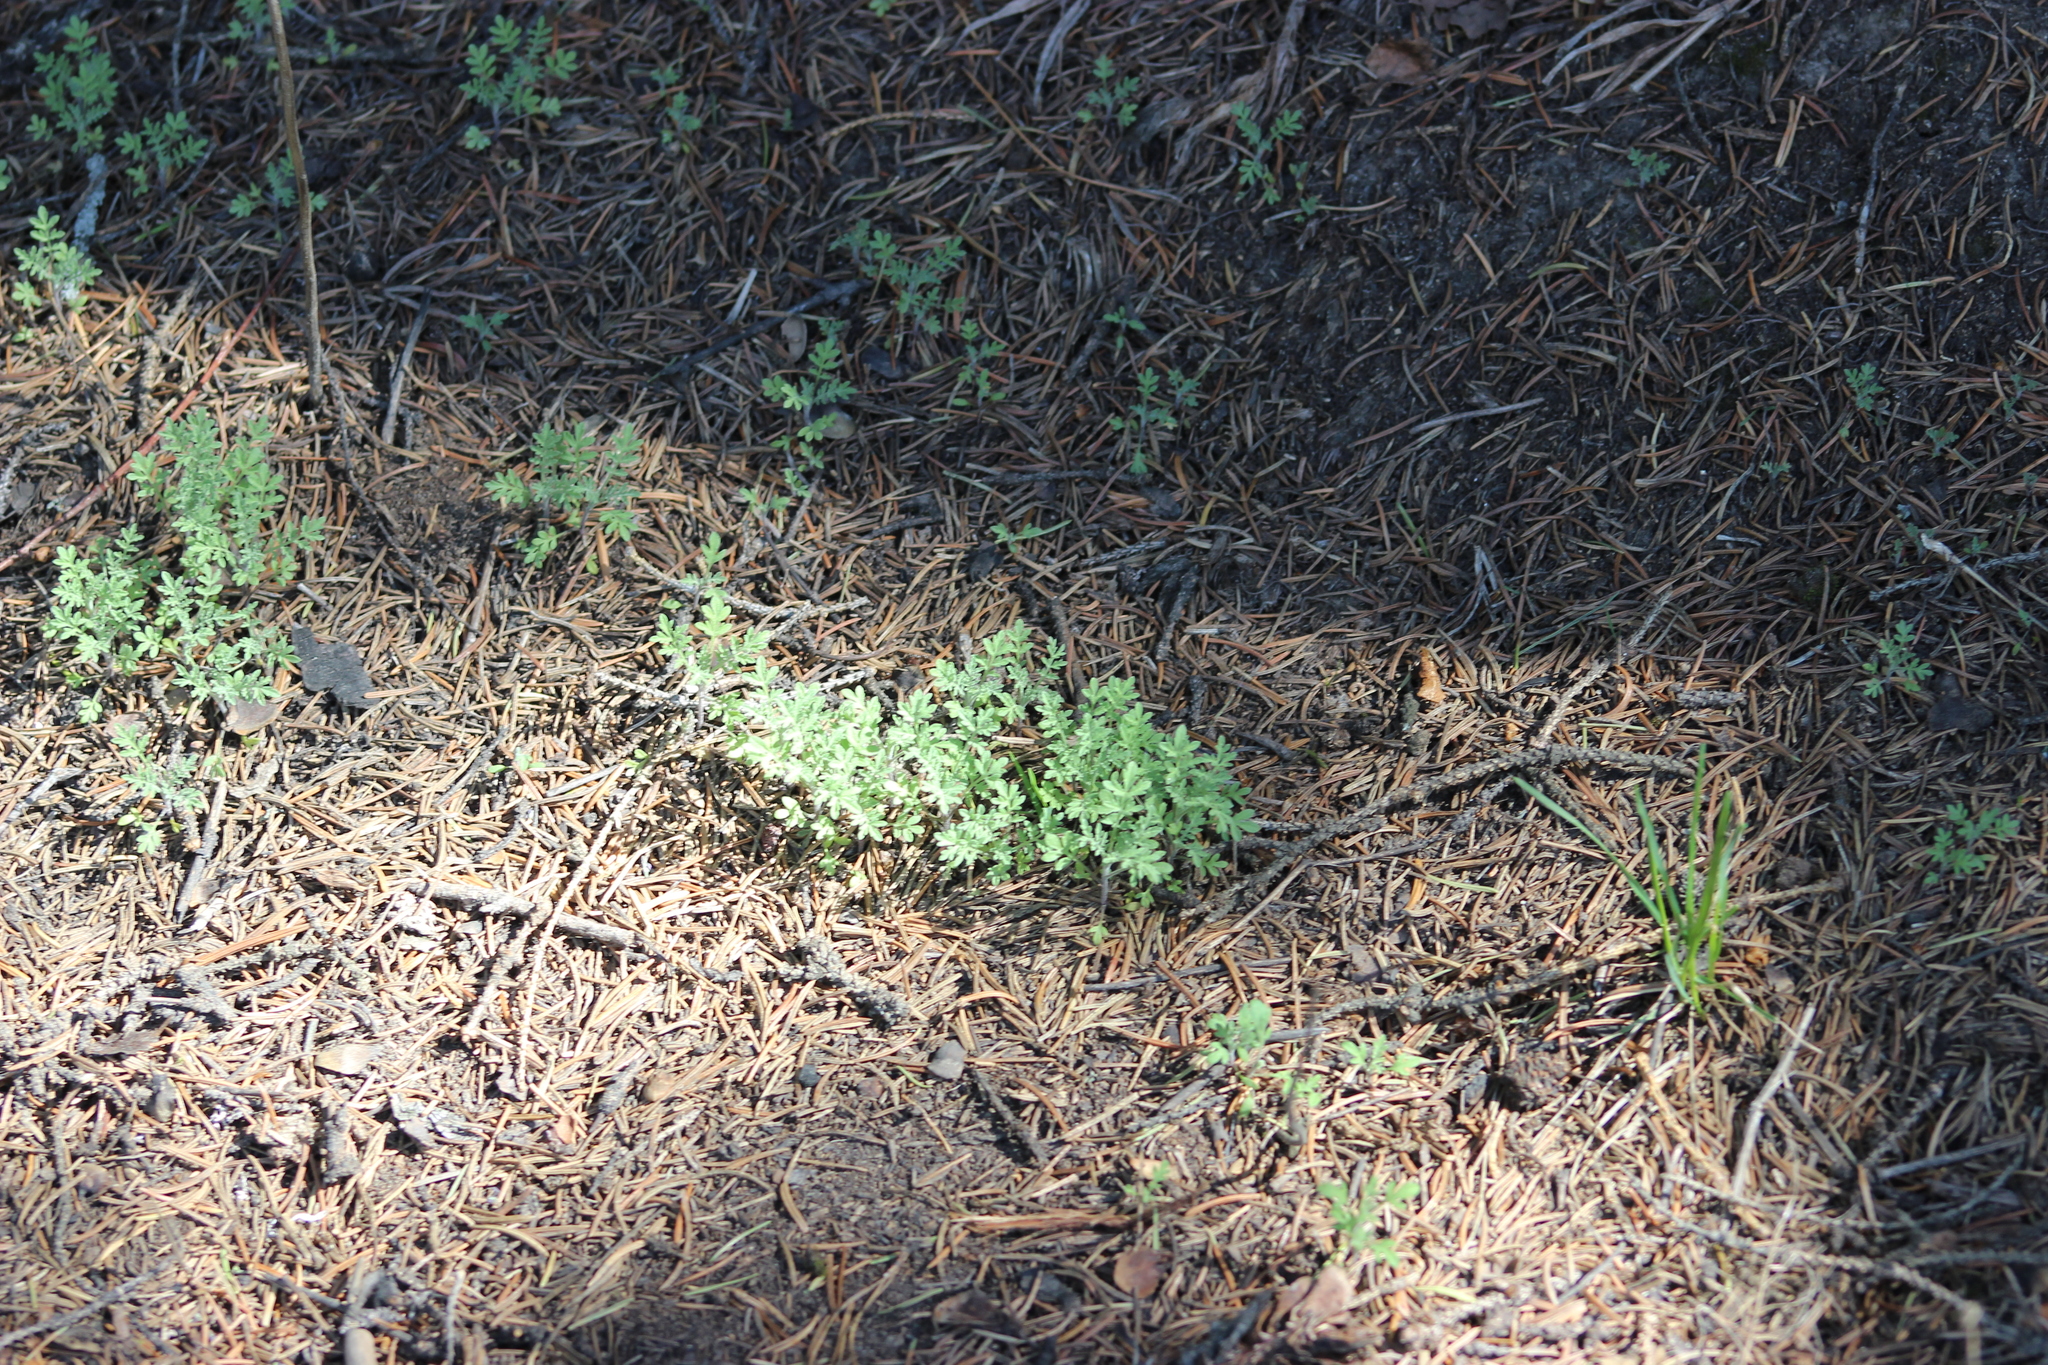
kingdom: Plantae
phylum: Tracheophyta
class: Magnoliopsida
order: Brassicales
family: Brassicaceae
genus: Descurainia
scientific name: Descurainia sophia
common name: Flixweed
